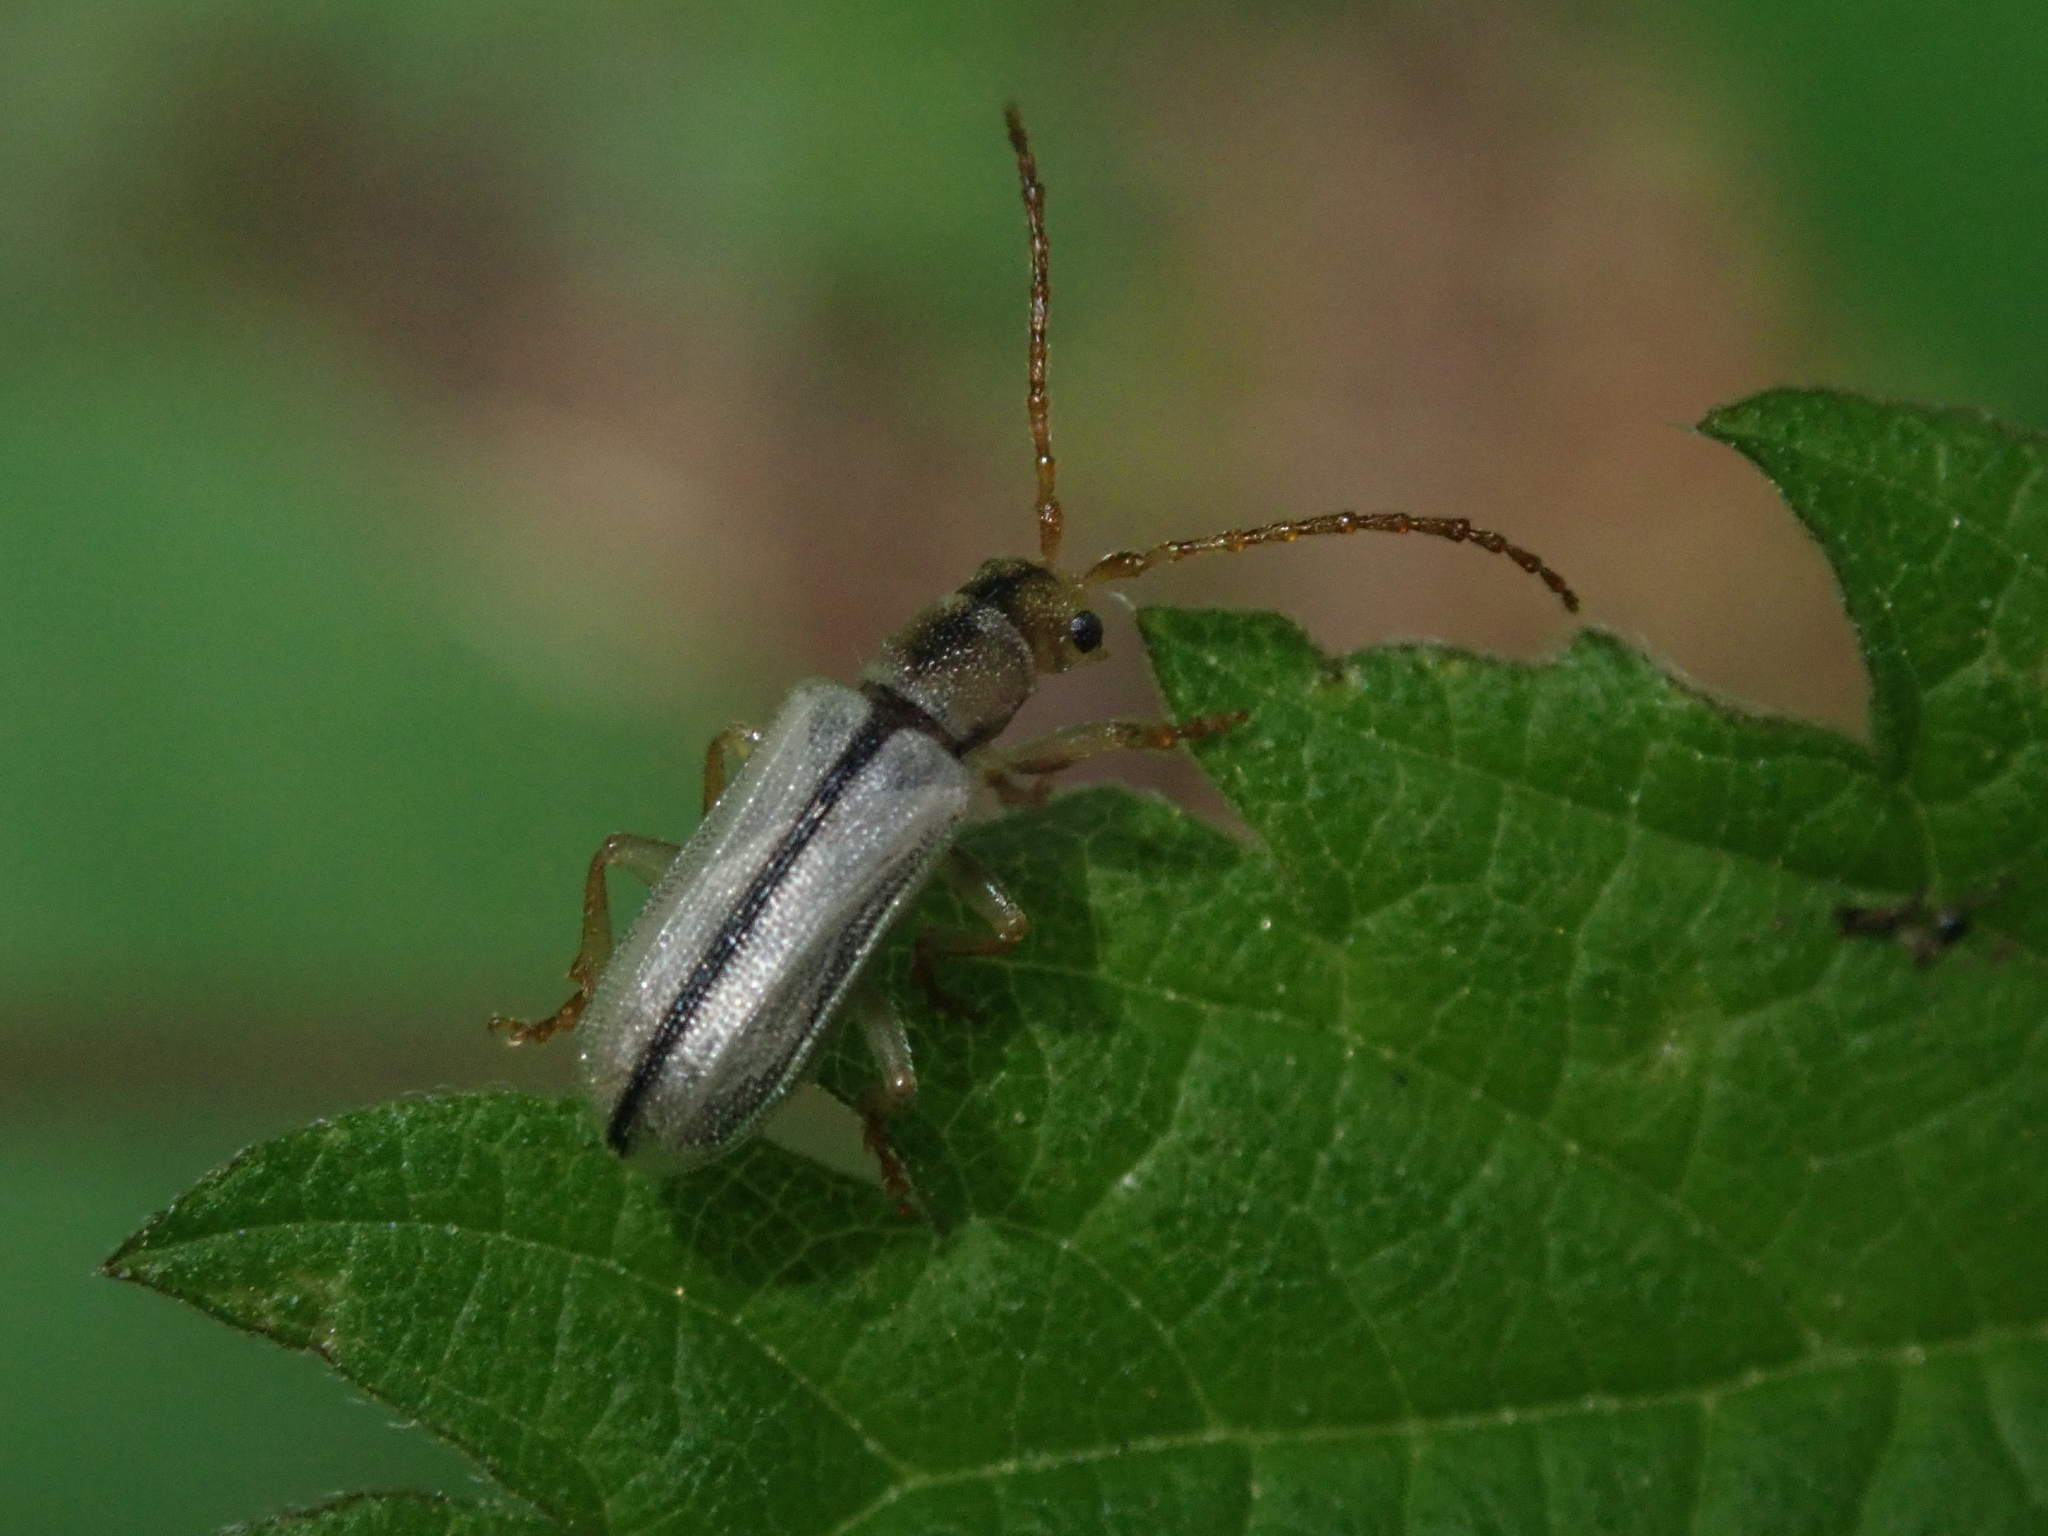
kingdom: Animalia
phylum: Arthropoda
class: Insecta
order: Coleoptera
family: Chrysomelidae
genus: Syneta
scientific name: Syneta albida
